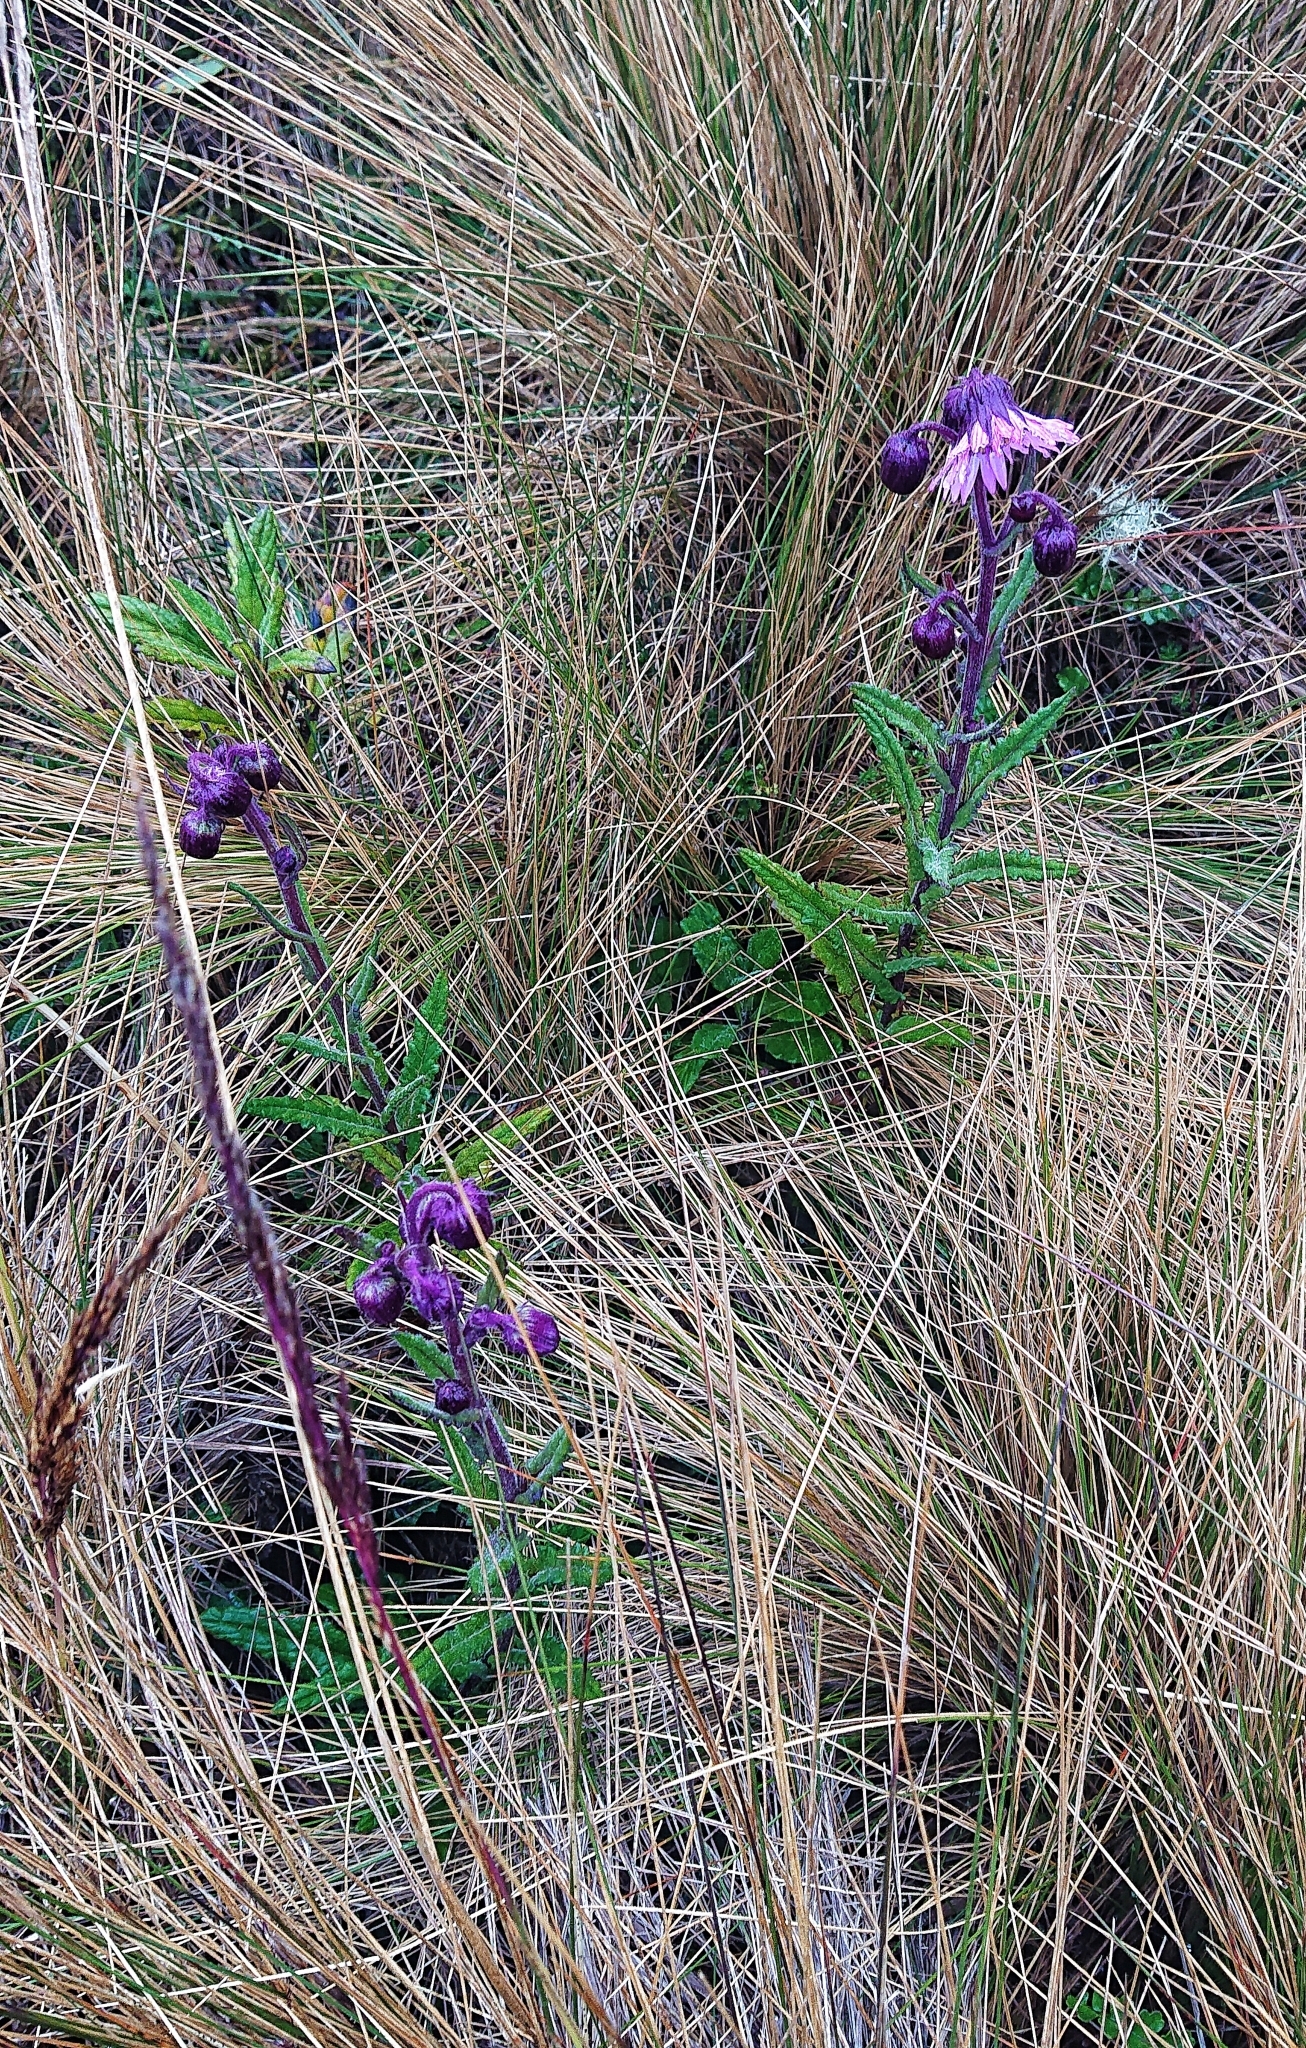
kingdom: Plantae
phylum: Tracheophyta
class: Magnoliopsida
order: Asterales
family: Asteraceae
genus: Senecio
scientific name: Senecio formosus
